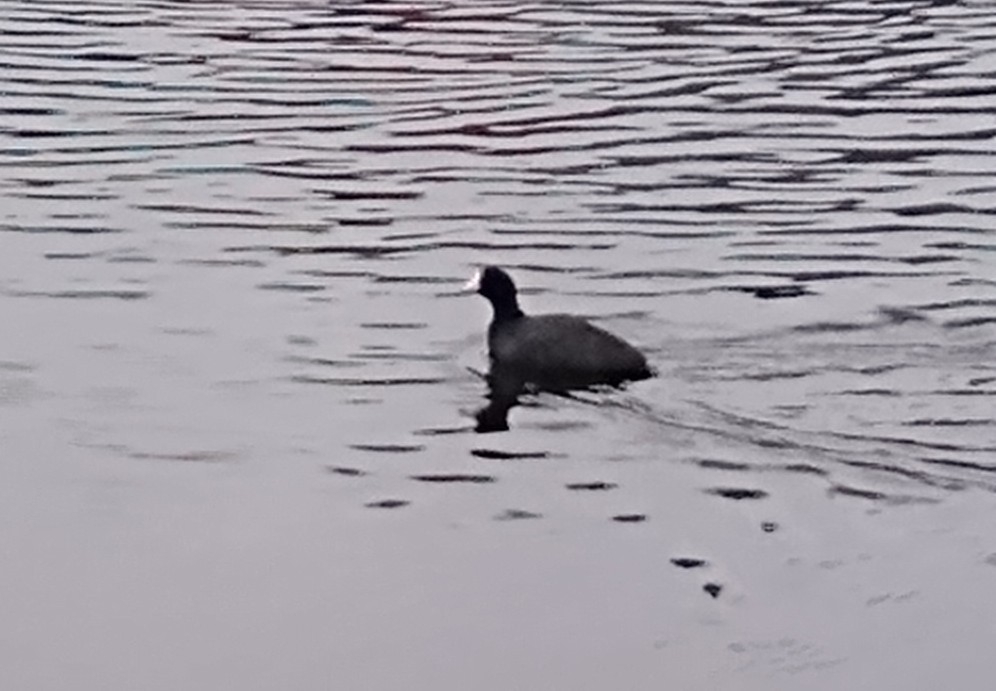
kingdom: Animalia
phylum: Chordata
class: Aves
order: Gruiformes
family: Rallidae
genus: Fulica
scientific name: Fulica americana
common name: American coot
